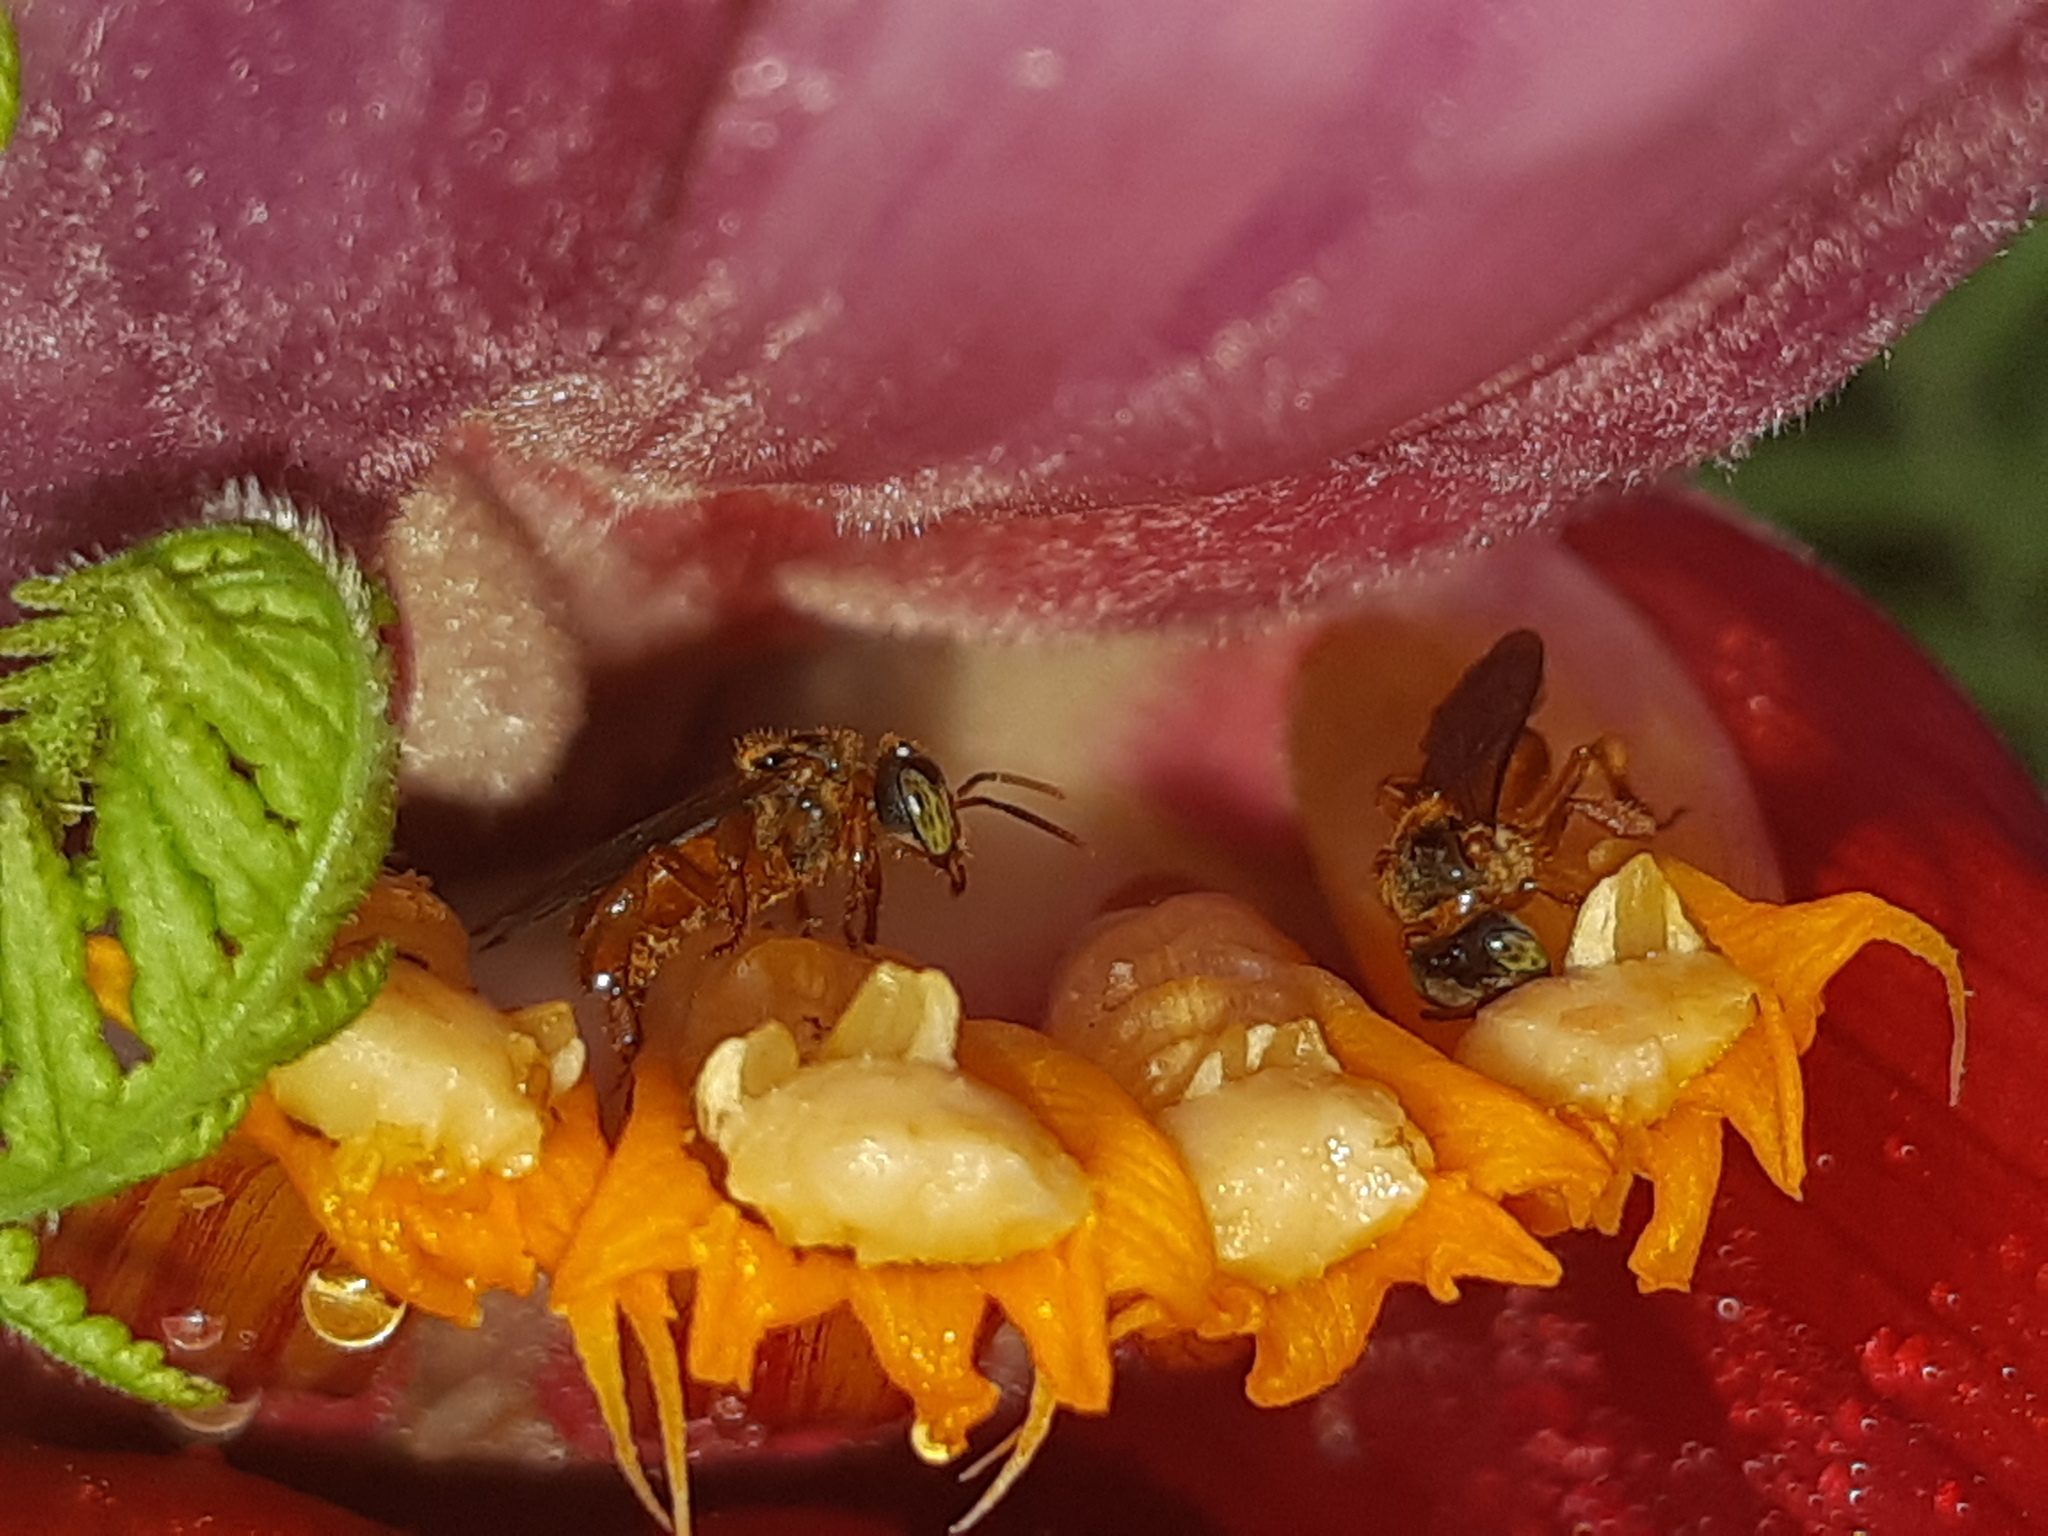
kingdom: Animalia
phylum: Arthropoda
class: Insecta
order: Hymenoptera
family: Apidae
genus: Trigona
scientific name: Trigona ferricauda
